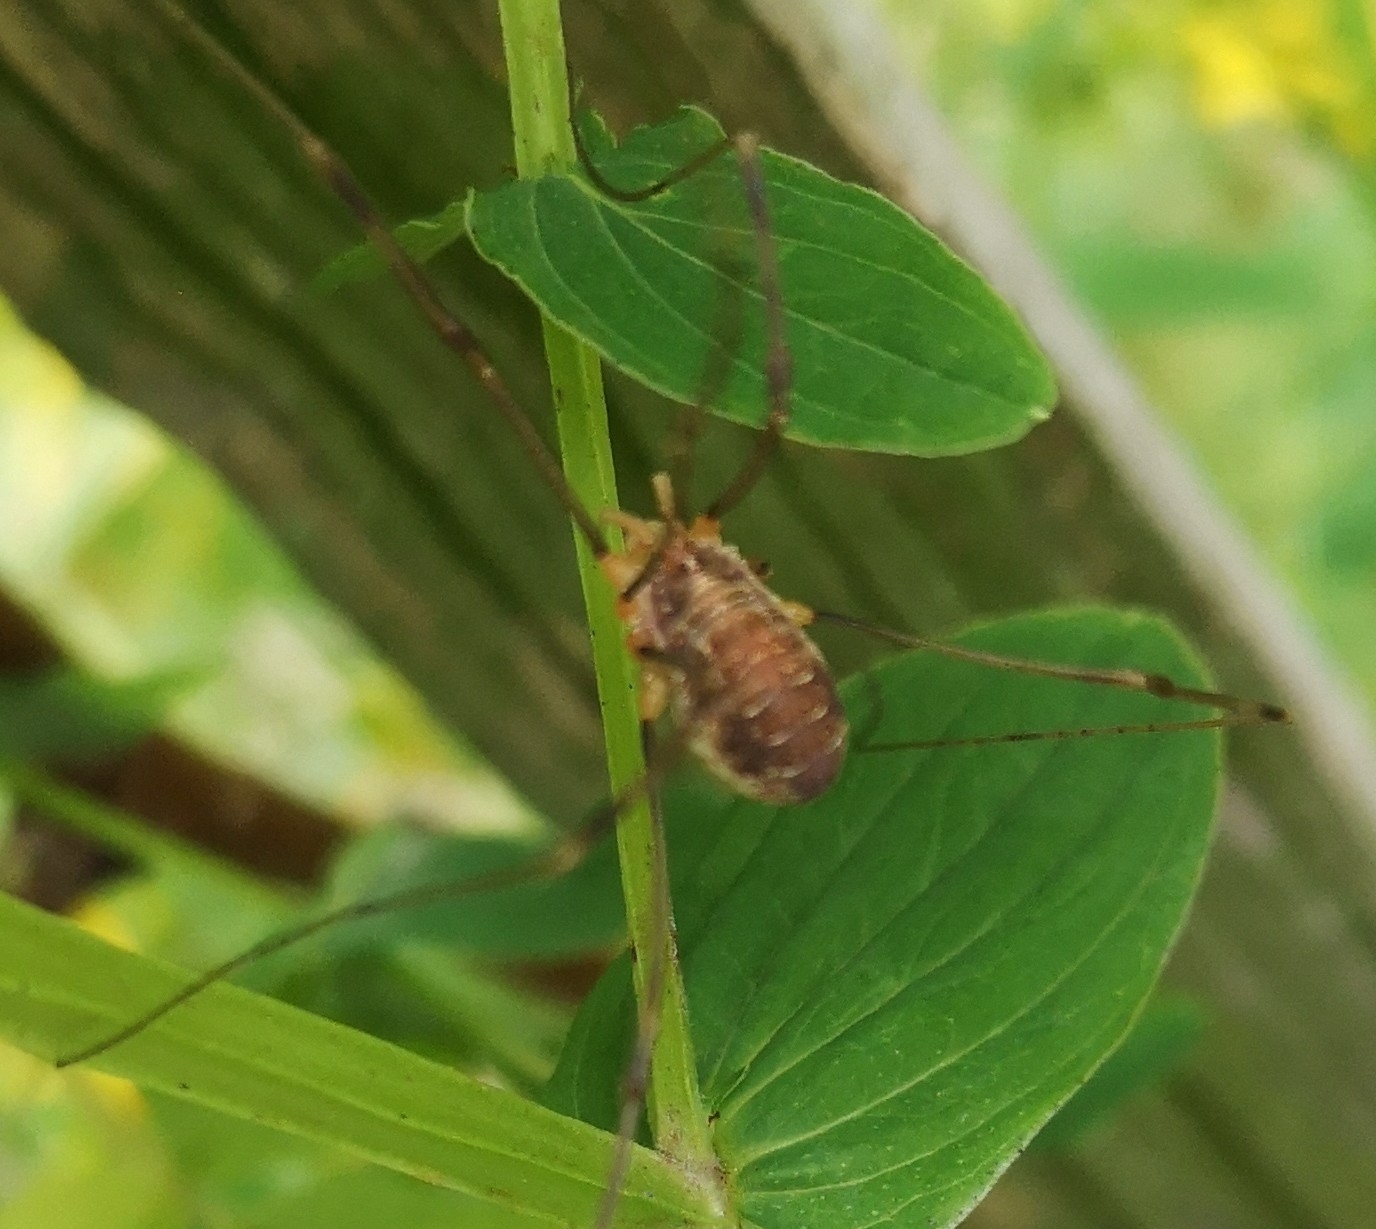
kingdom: Animalia
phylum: Arthropoda
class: Arachnida
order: Opiliones
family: Phalangiidae
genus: Opilio
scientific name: Opilio canestrinii
